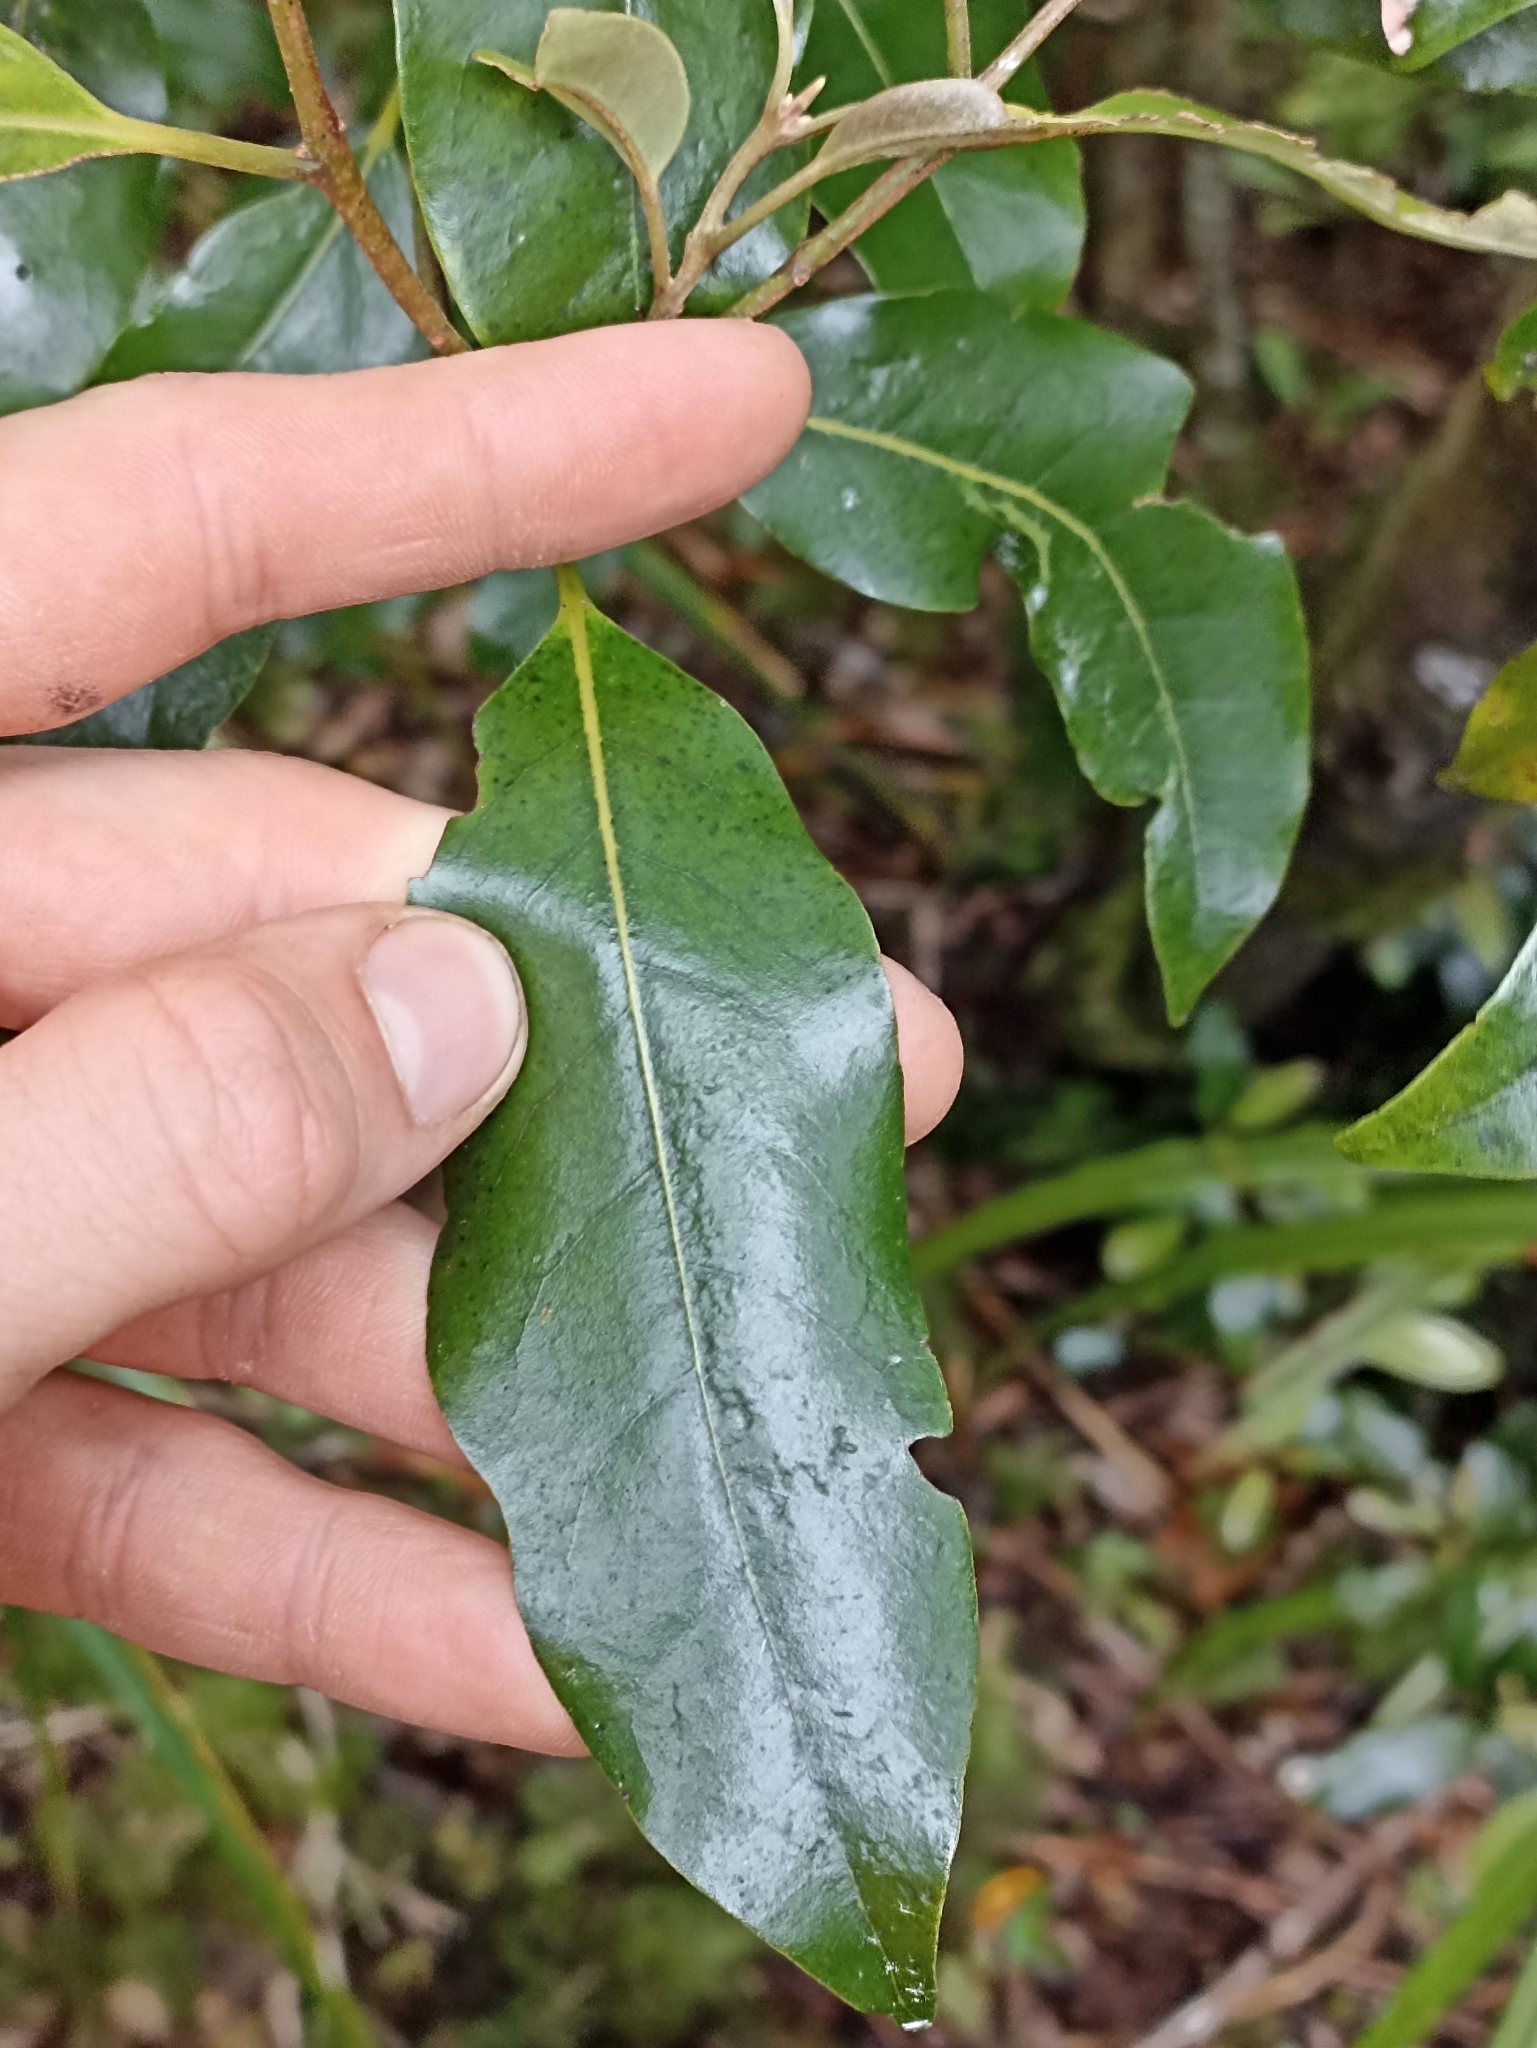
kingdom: Plantae
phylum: Tracheophyta
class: Magnoliopsida
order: Laurales
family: Lauraceae
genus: Beilschmiedia
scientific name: Beilschmiedia tawa
